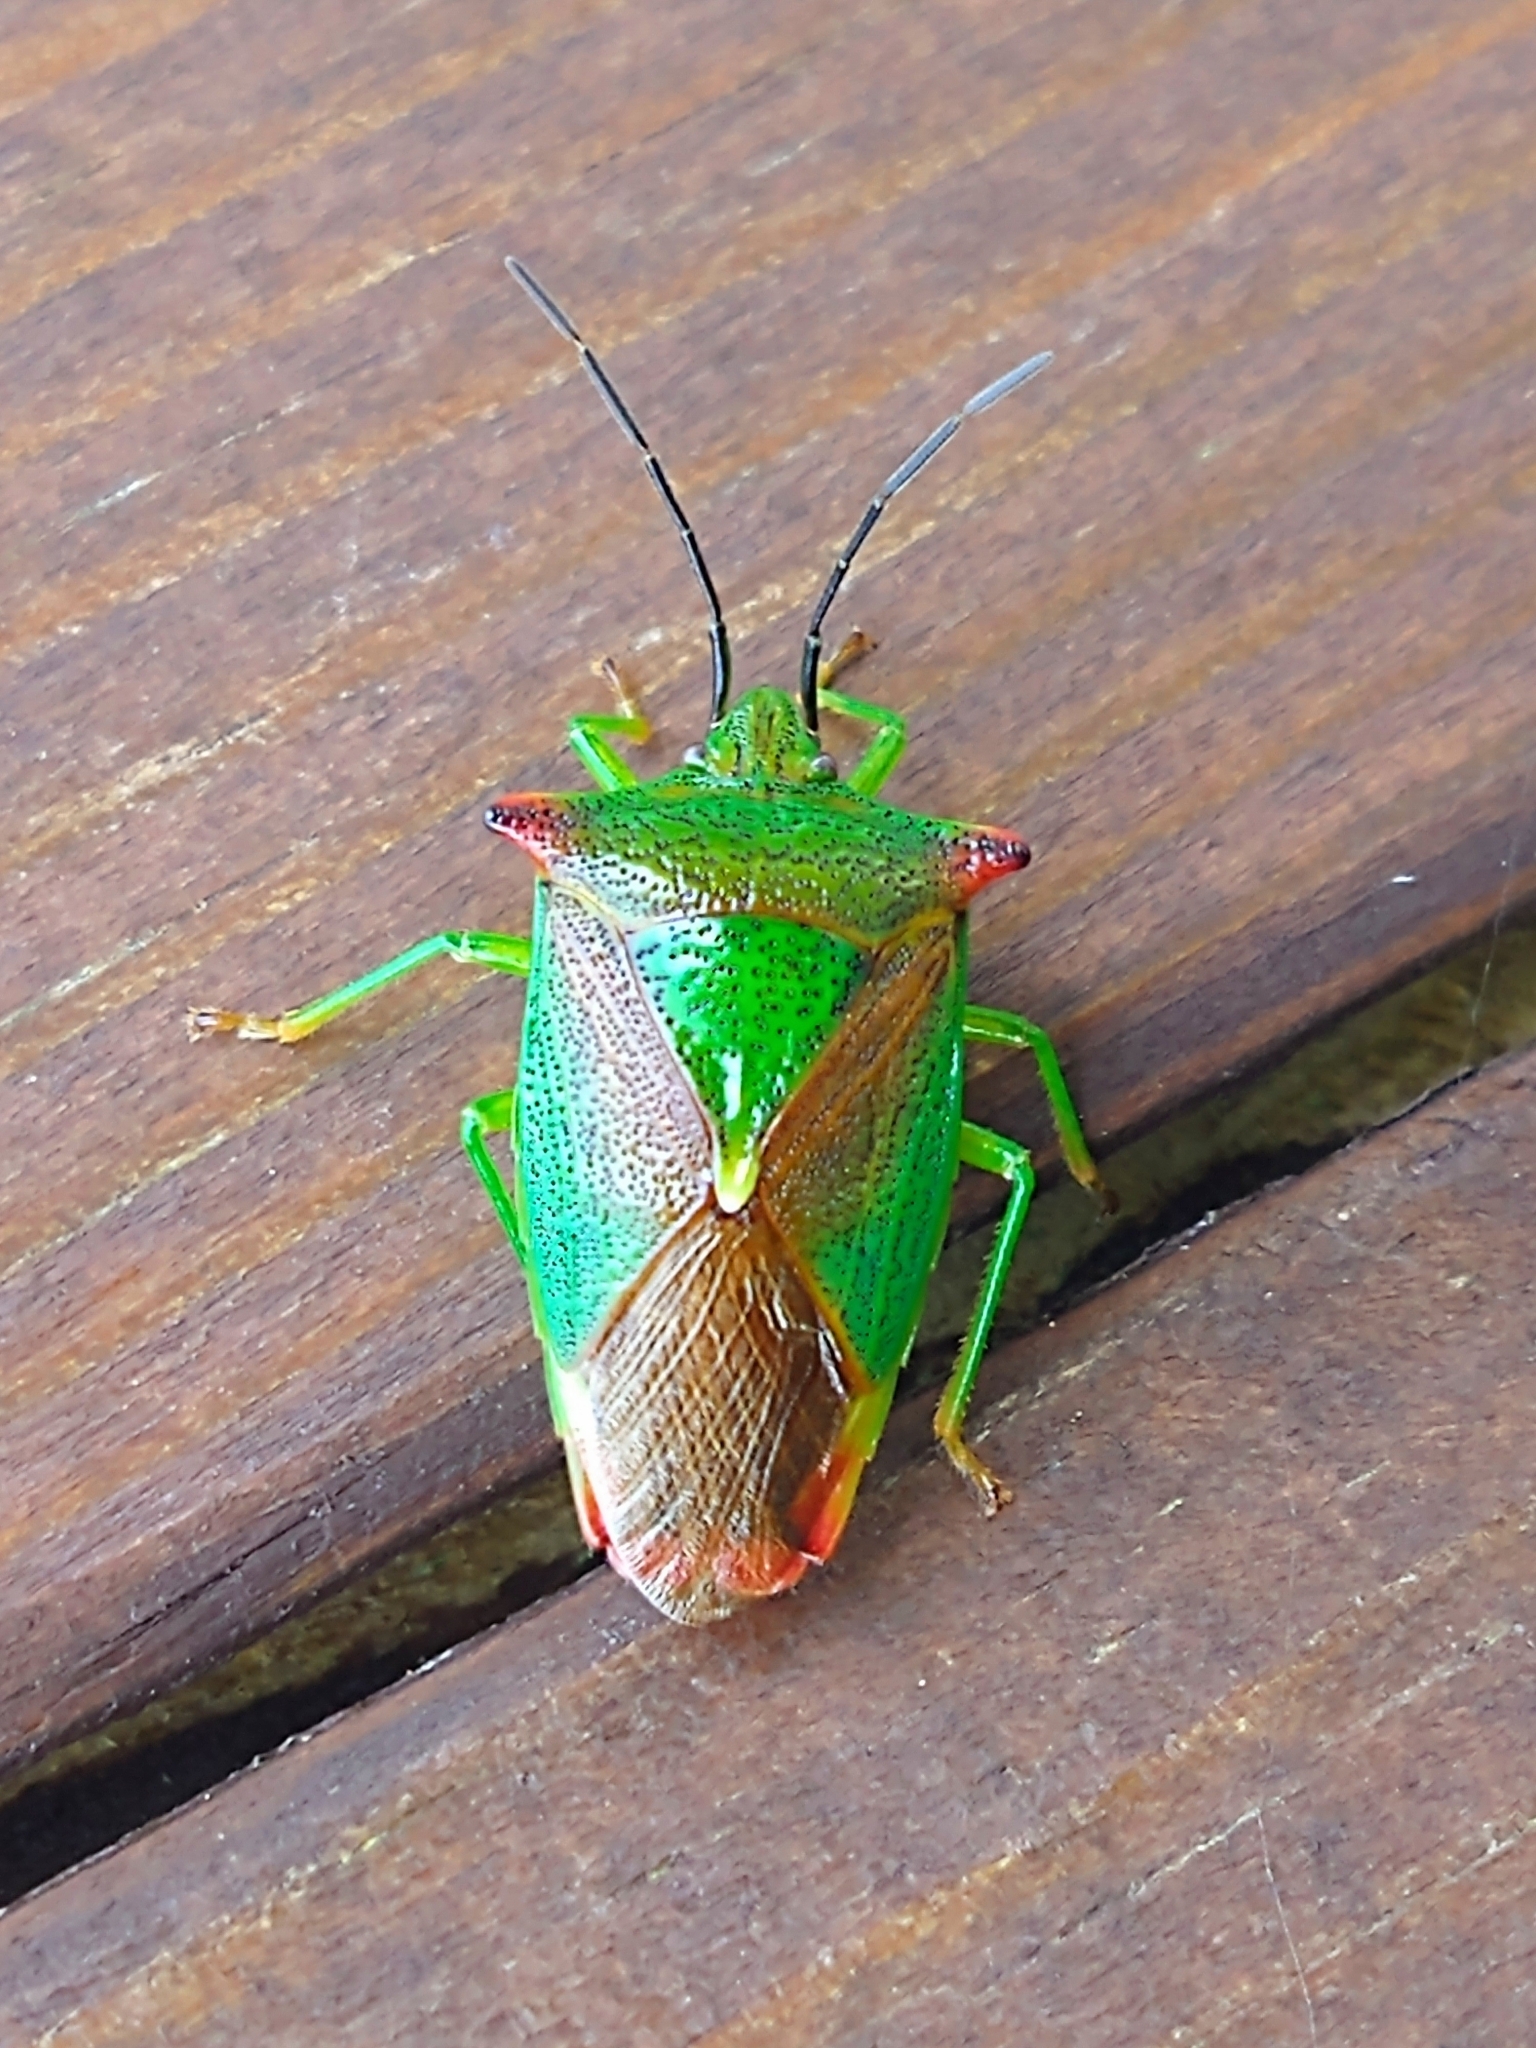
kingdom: Animalia
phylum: Arthropoda
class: Insecta
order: Hemiptera
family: Acanthosomatidae
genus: Acanthosoma
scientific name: Acanthosoma haemorrhoidale
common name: Hawthorn shieldbug
